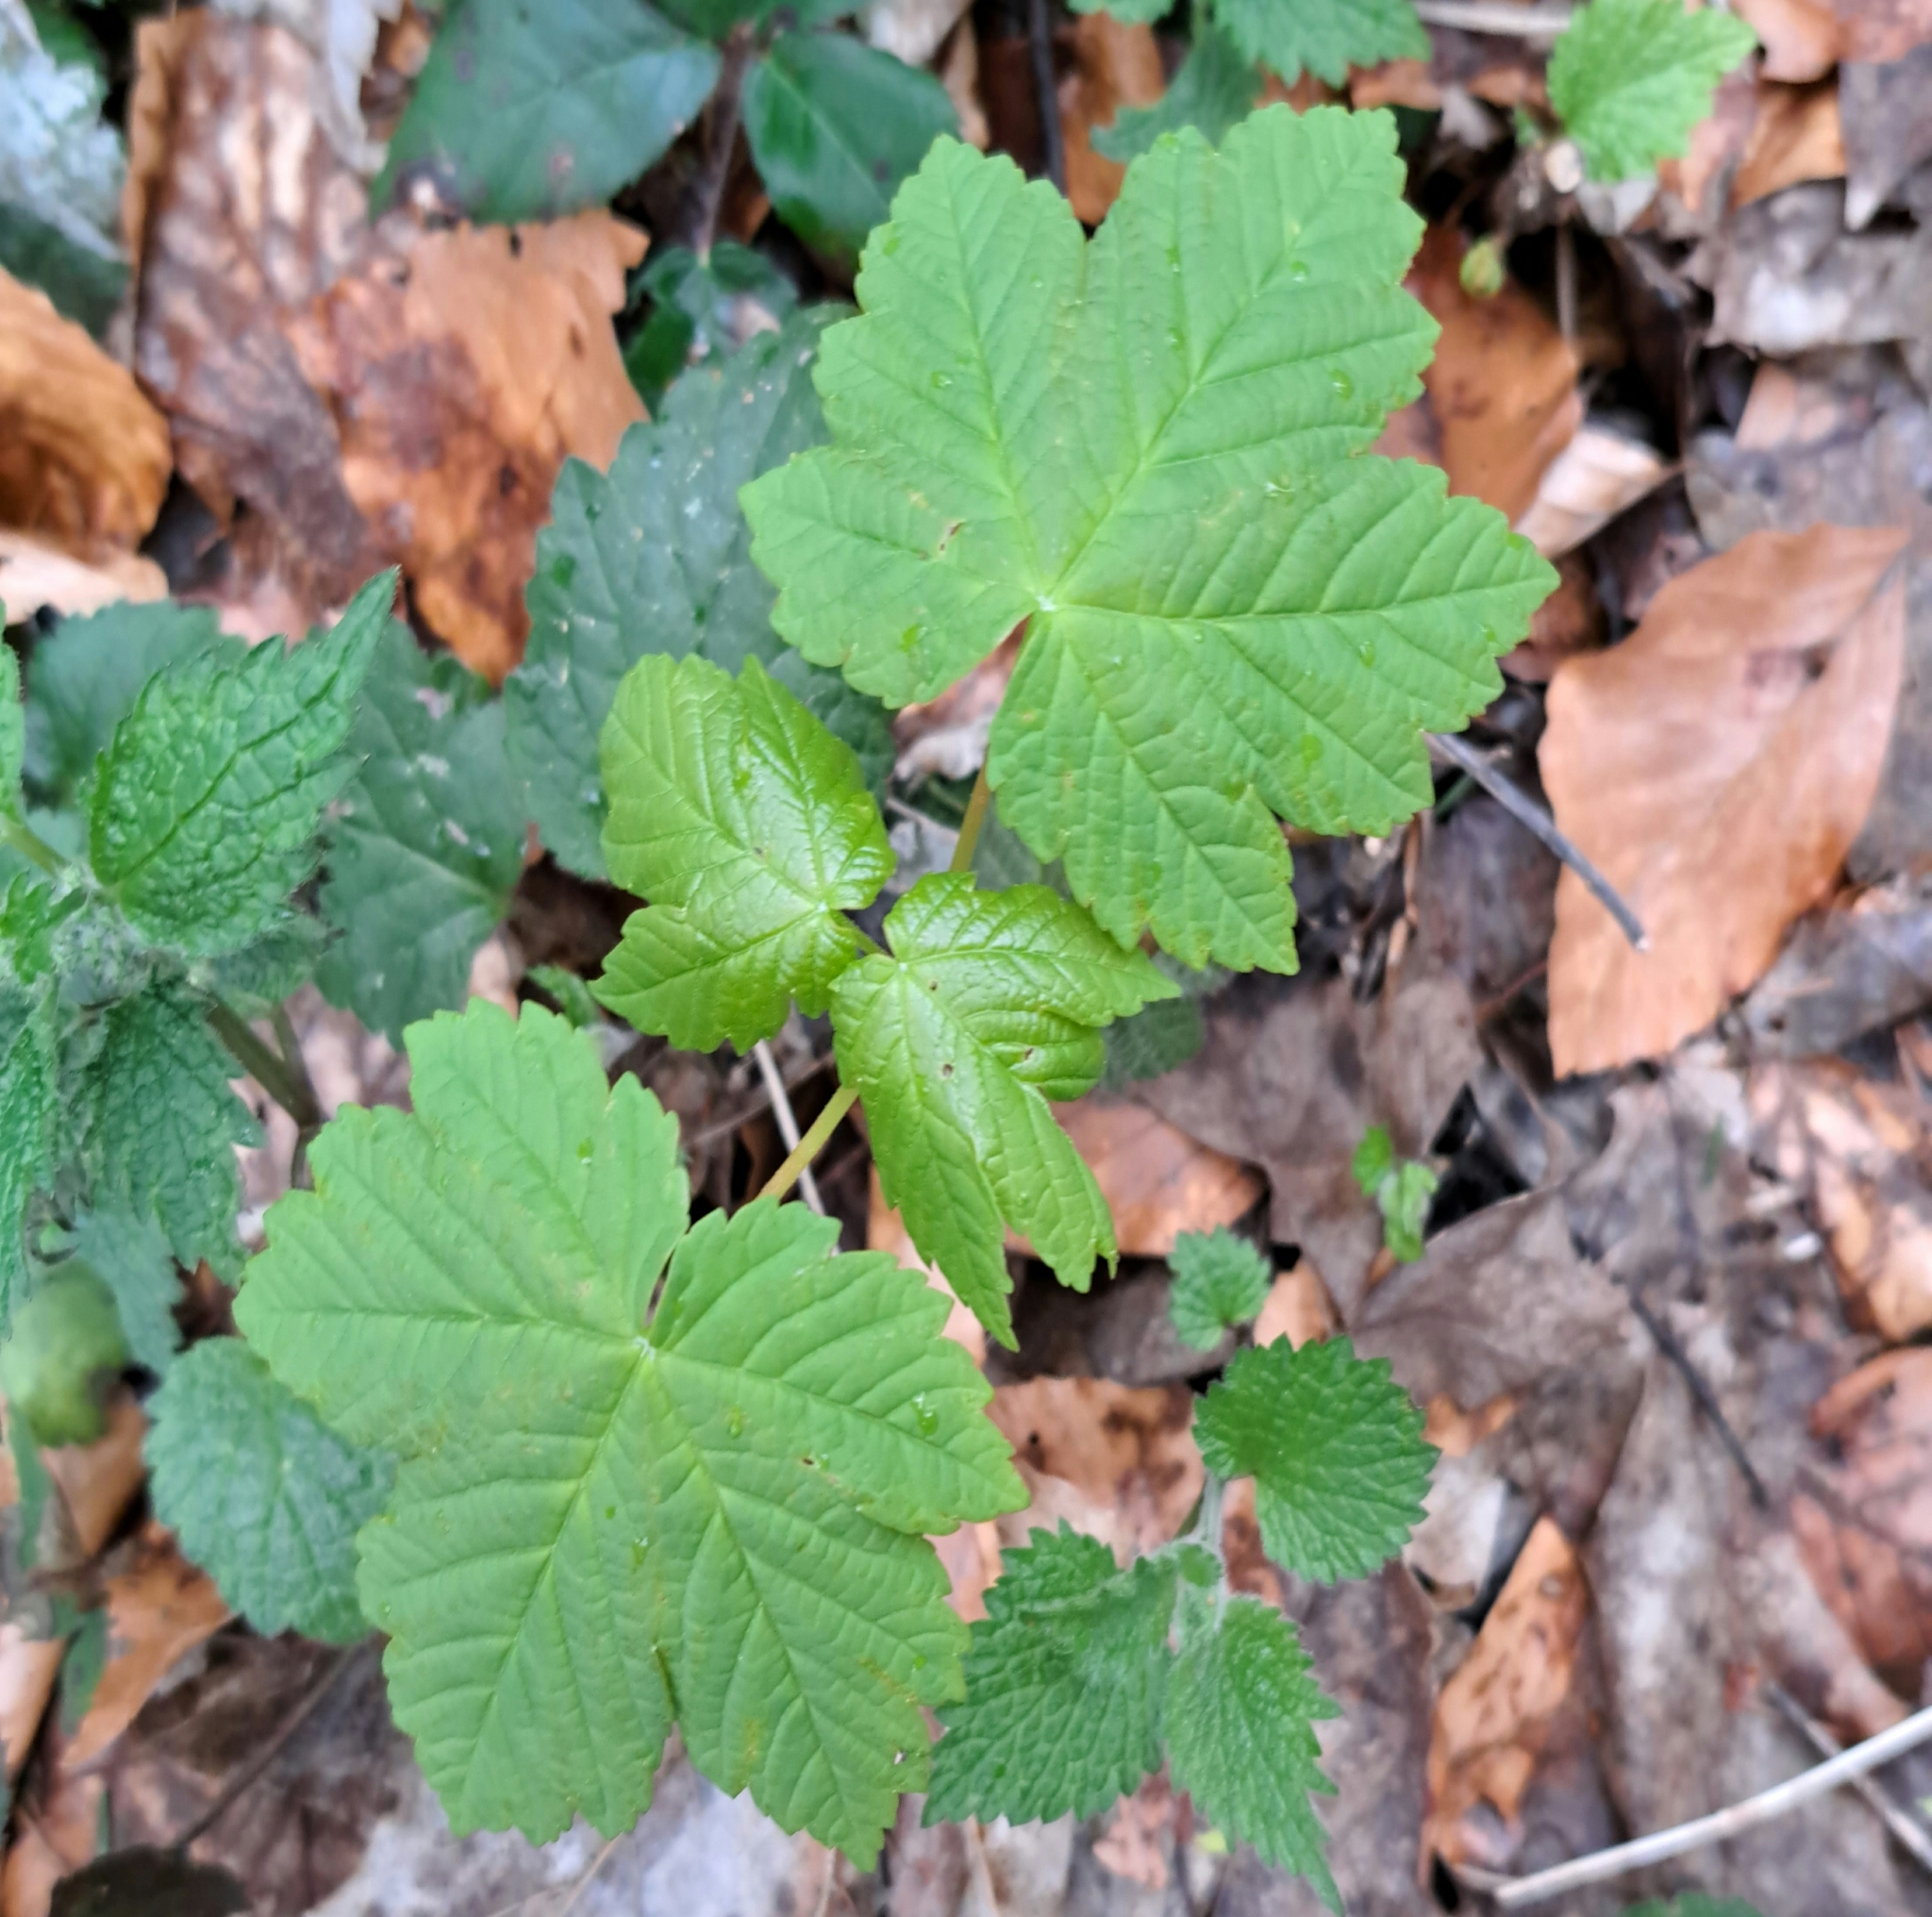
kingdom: Plantae
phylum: Tracheophyta
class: Magnoliopsida
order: Sapindales
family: Sapindaceae
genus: Acer
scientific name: Acer pseudoplatanus
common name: Sycamore
